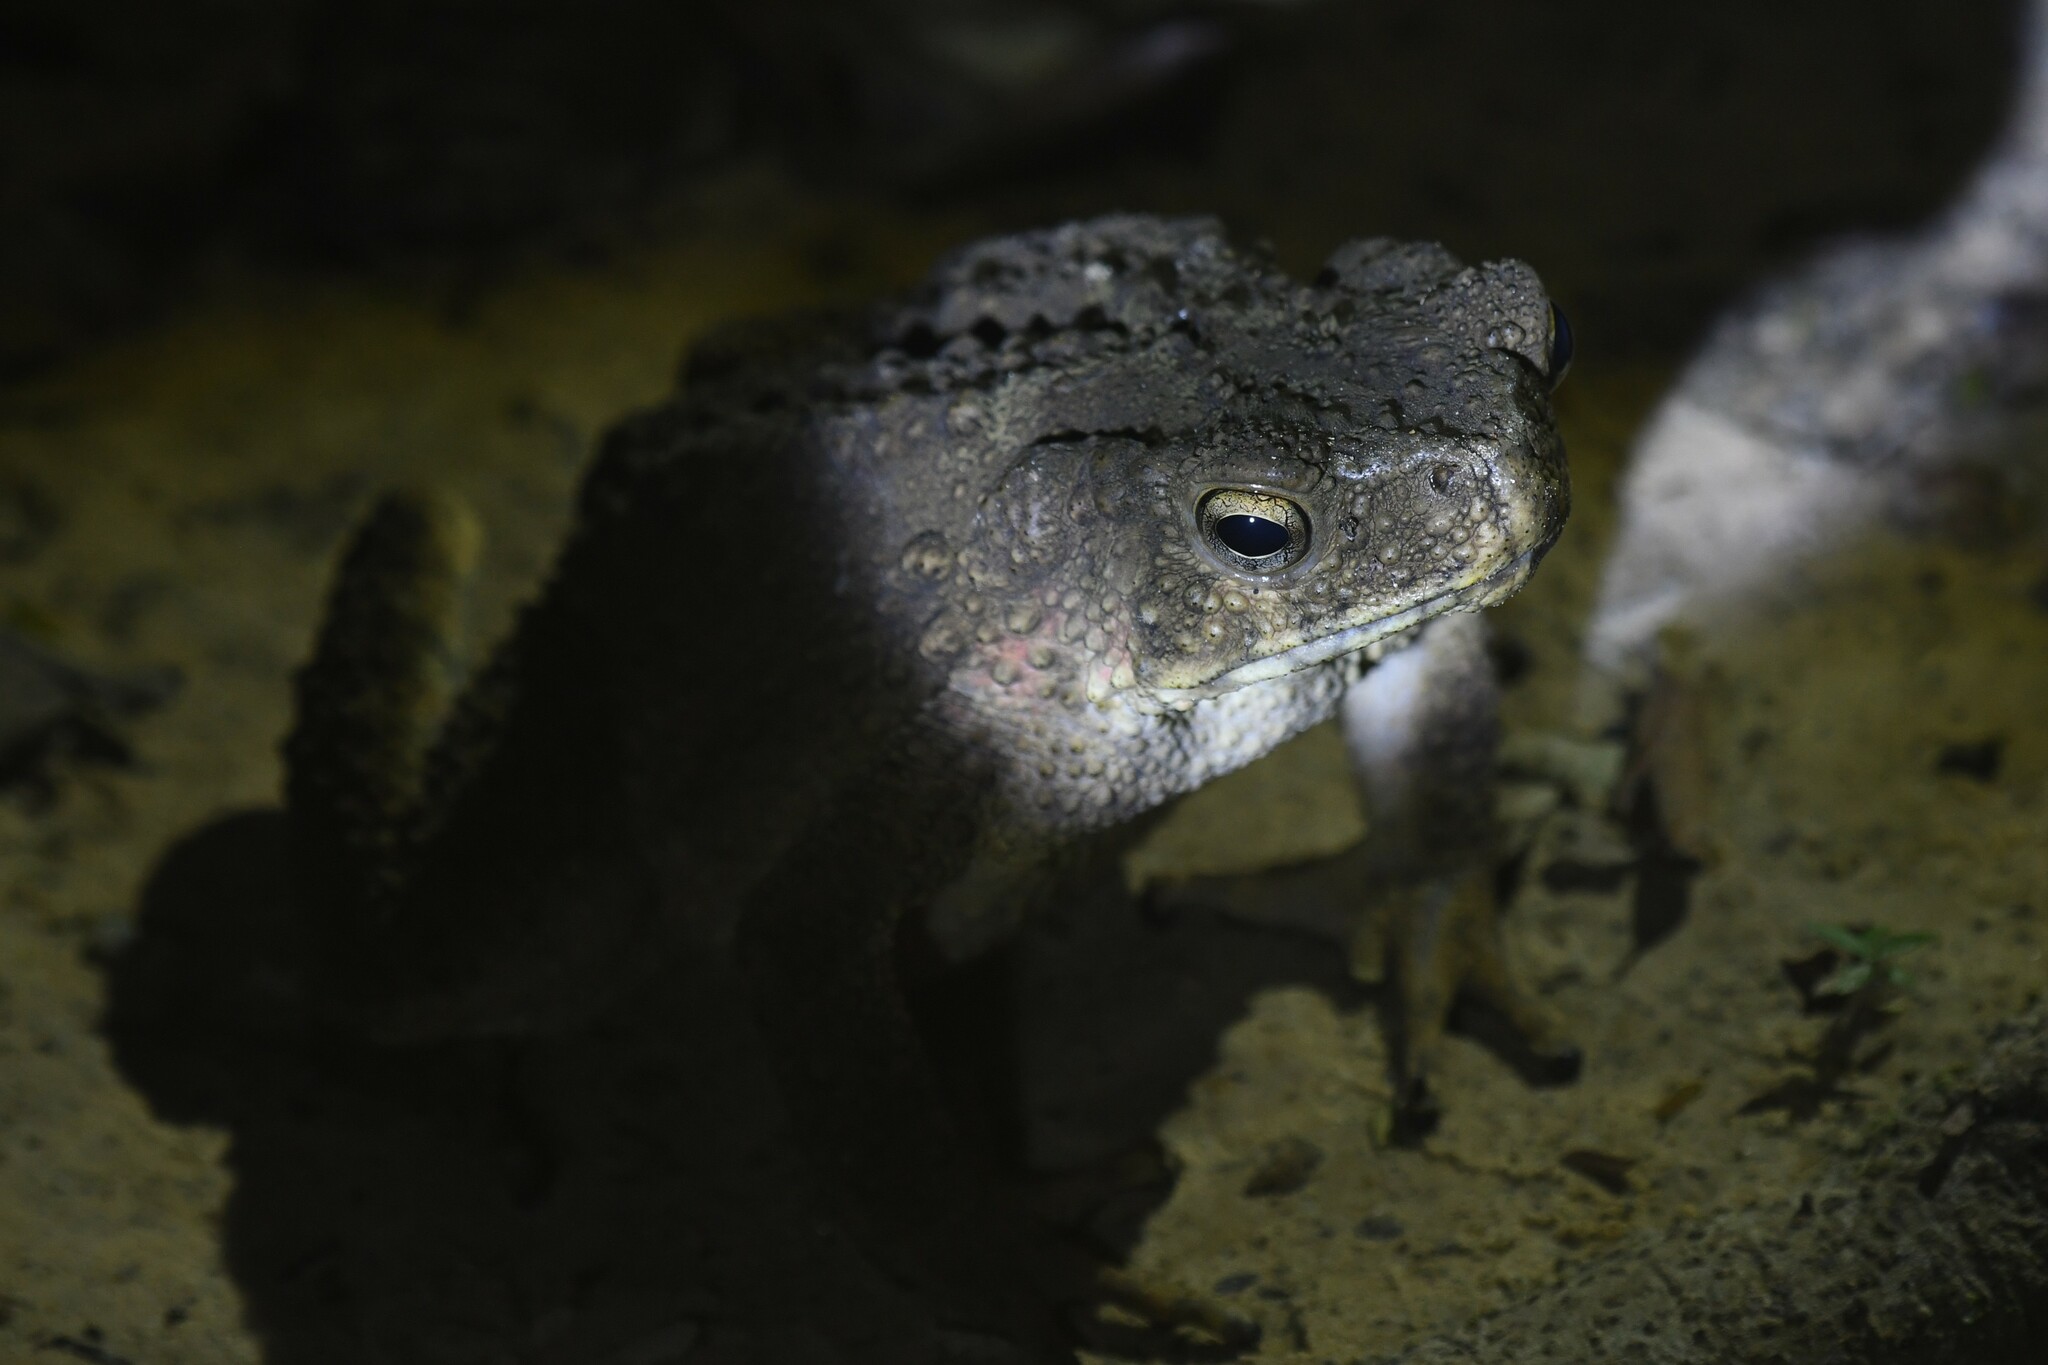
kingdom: Animalia
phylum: Chordata
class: Amphibia
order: Anura
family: Bufonidae
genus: Phrynoidis
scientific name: Phrynoidis asper
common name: Asian giant toad
